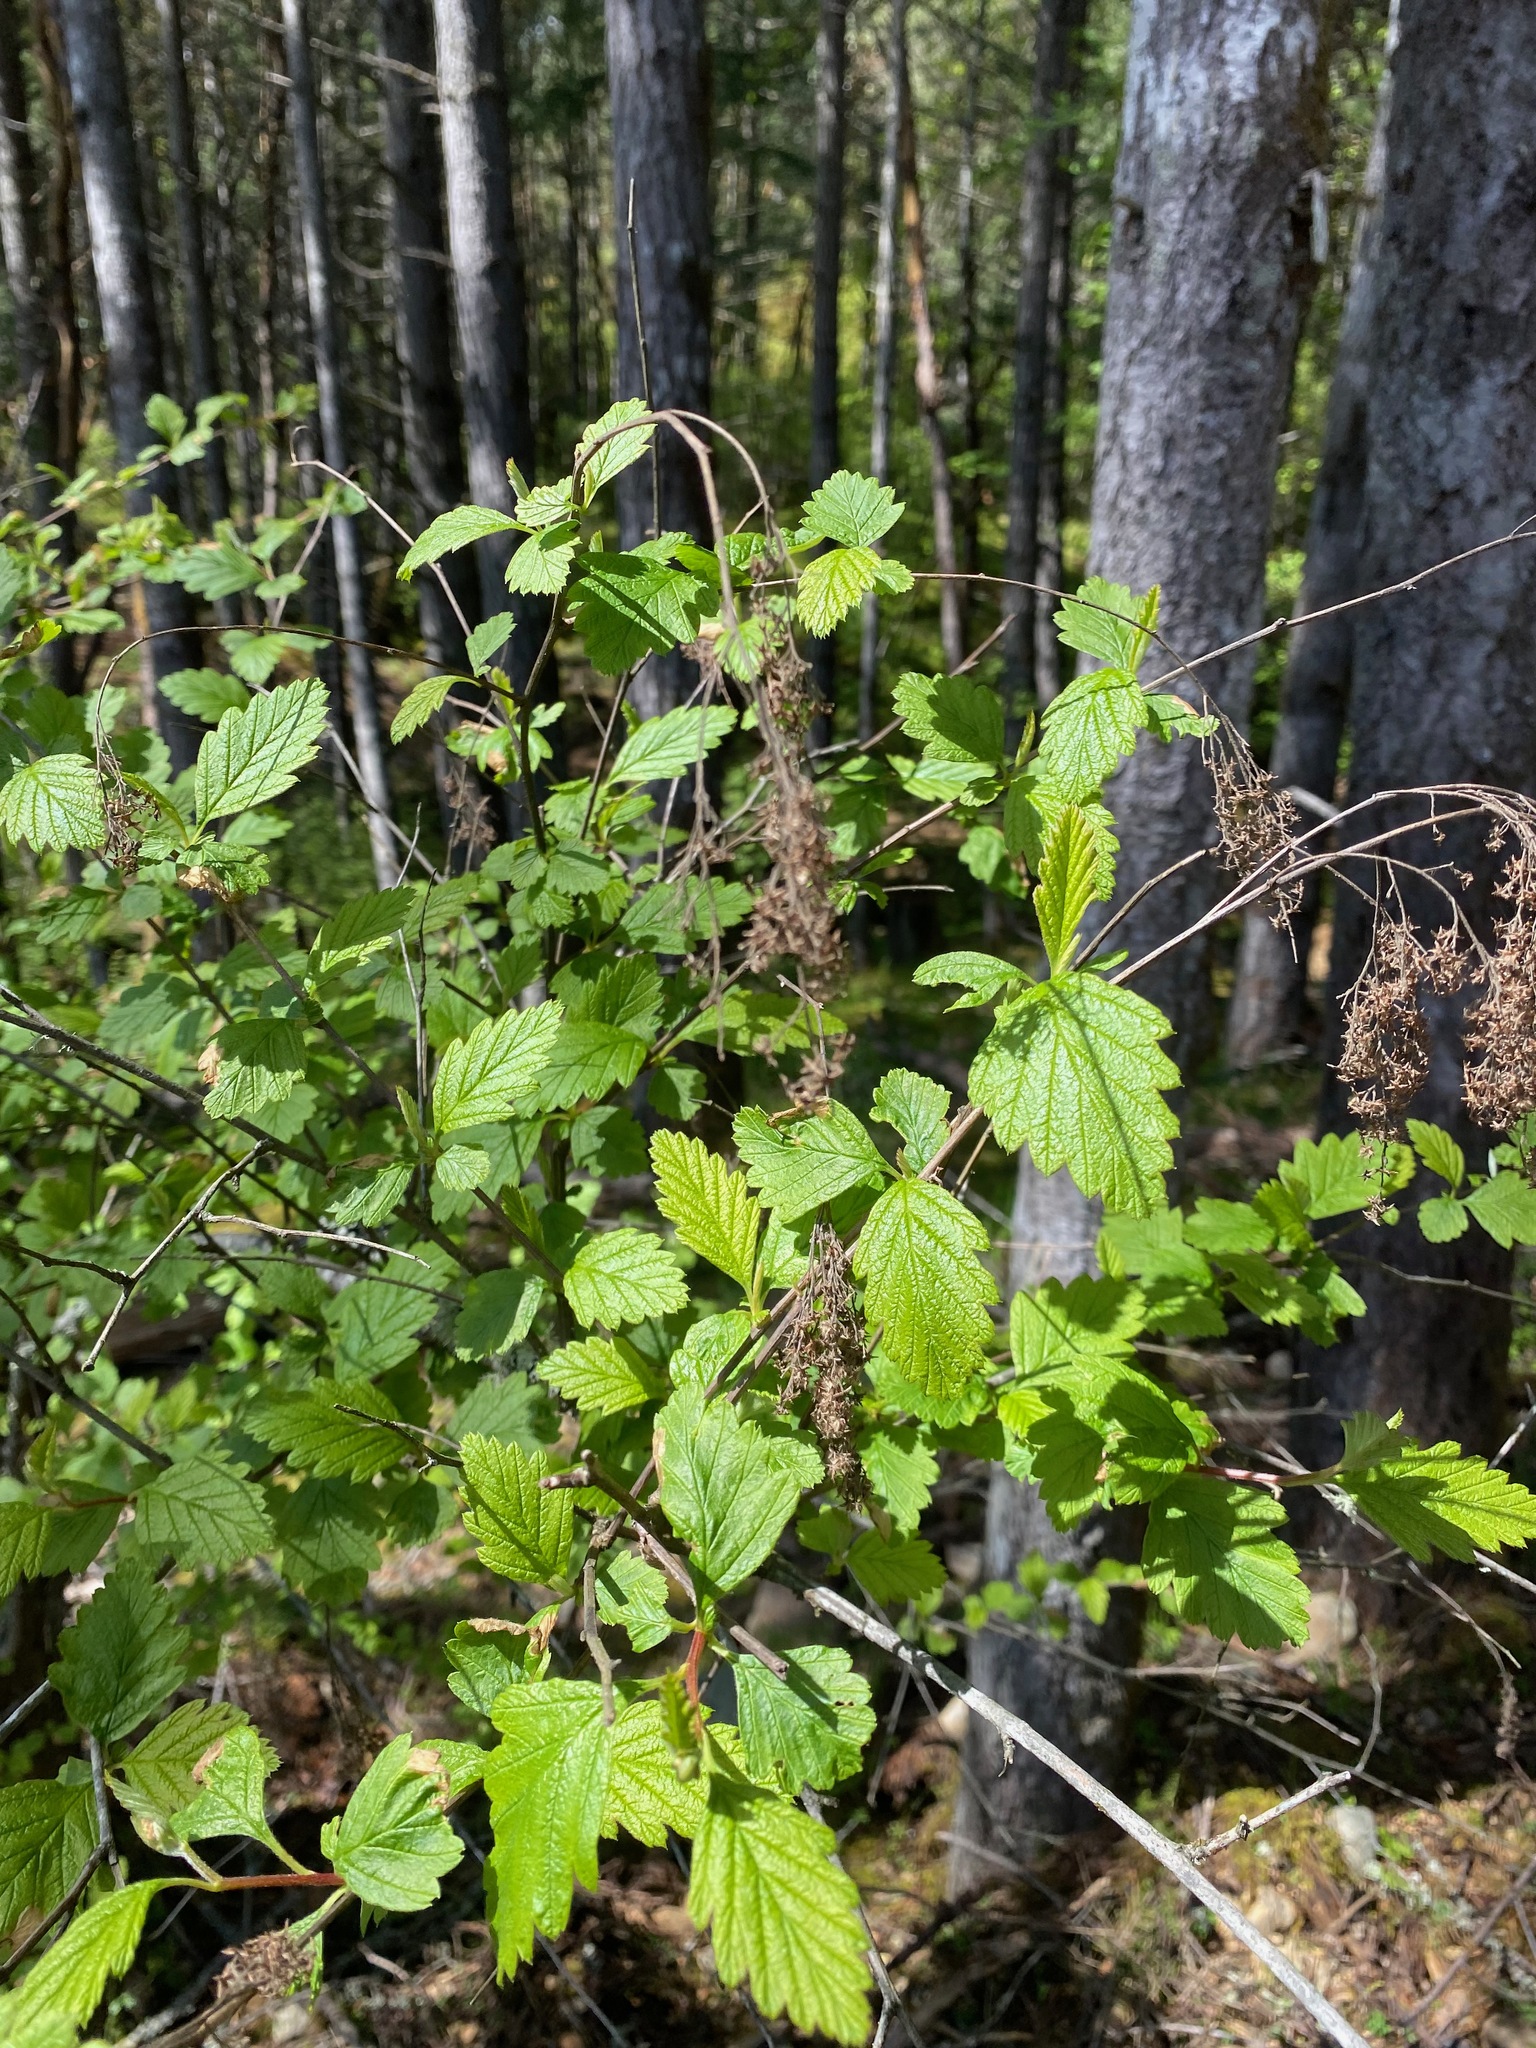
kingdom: Plantae
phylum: Tracheophyta
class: Magnoliopsida
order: Rosales
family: Rosaceae
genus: Holodiscus
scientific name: Holodiscus discolor
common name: Oceanspray
